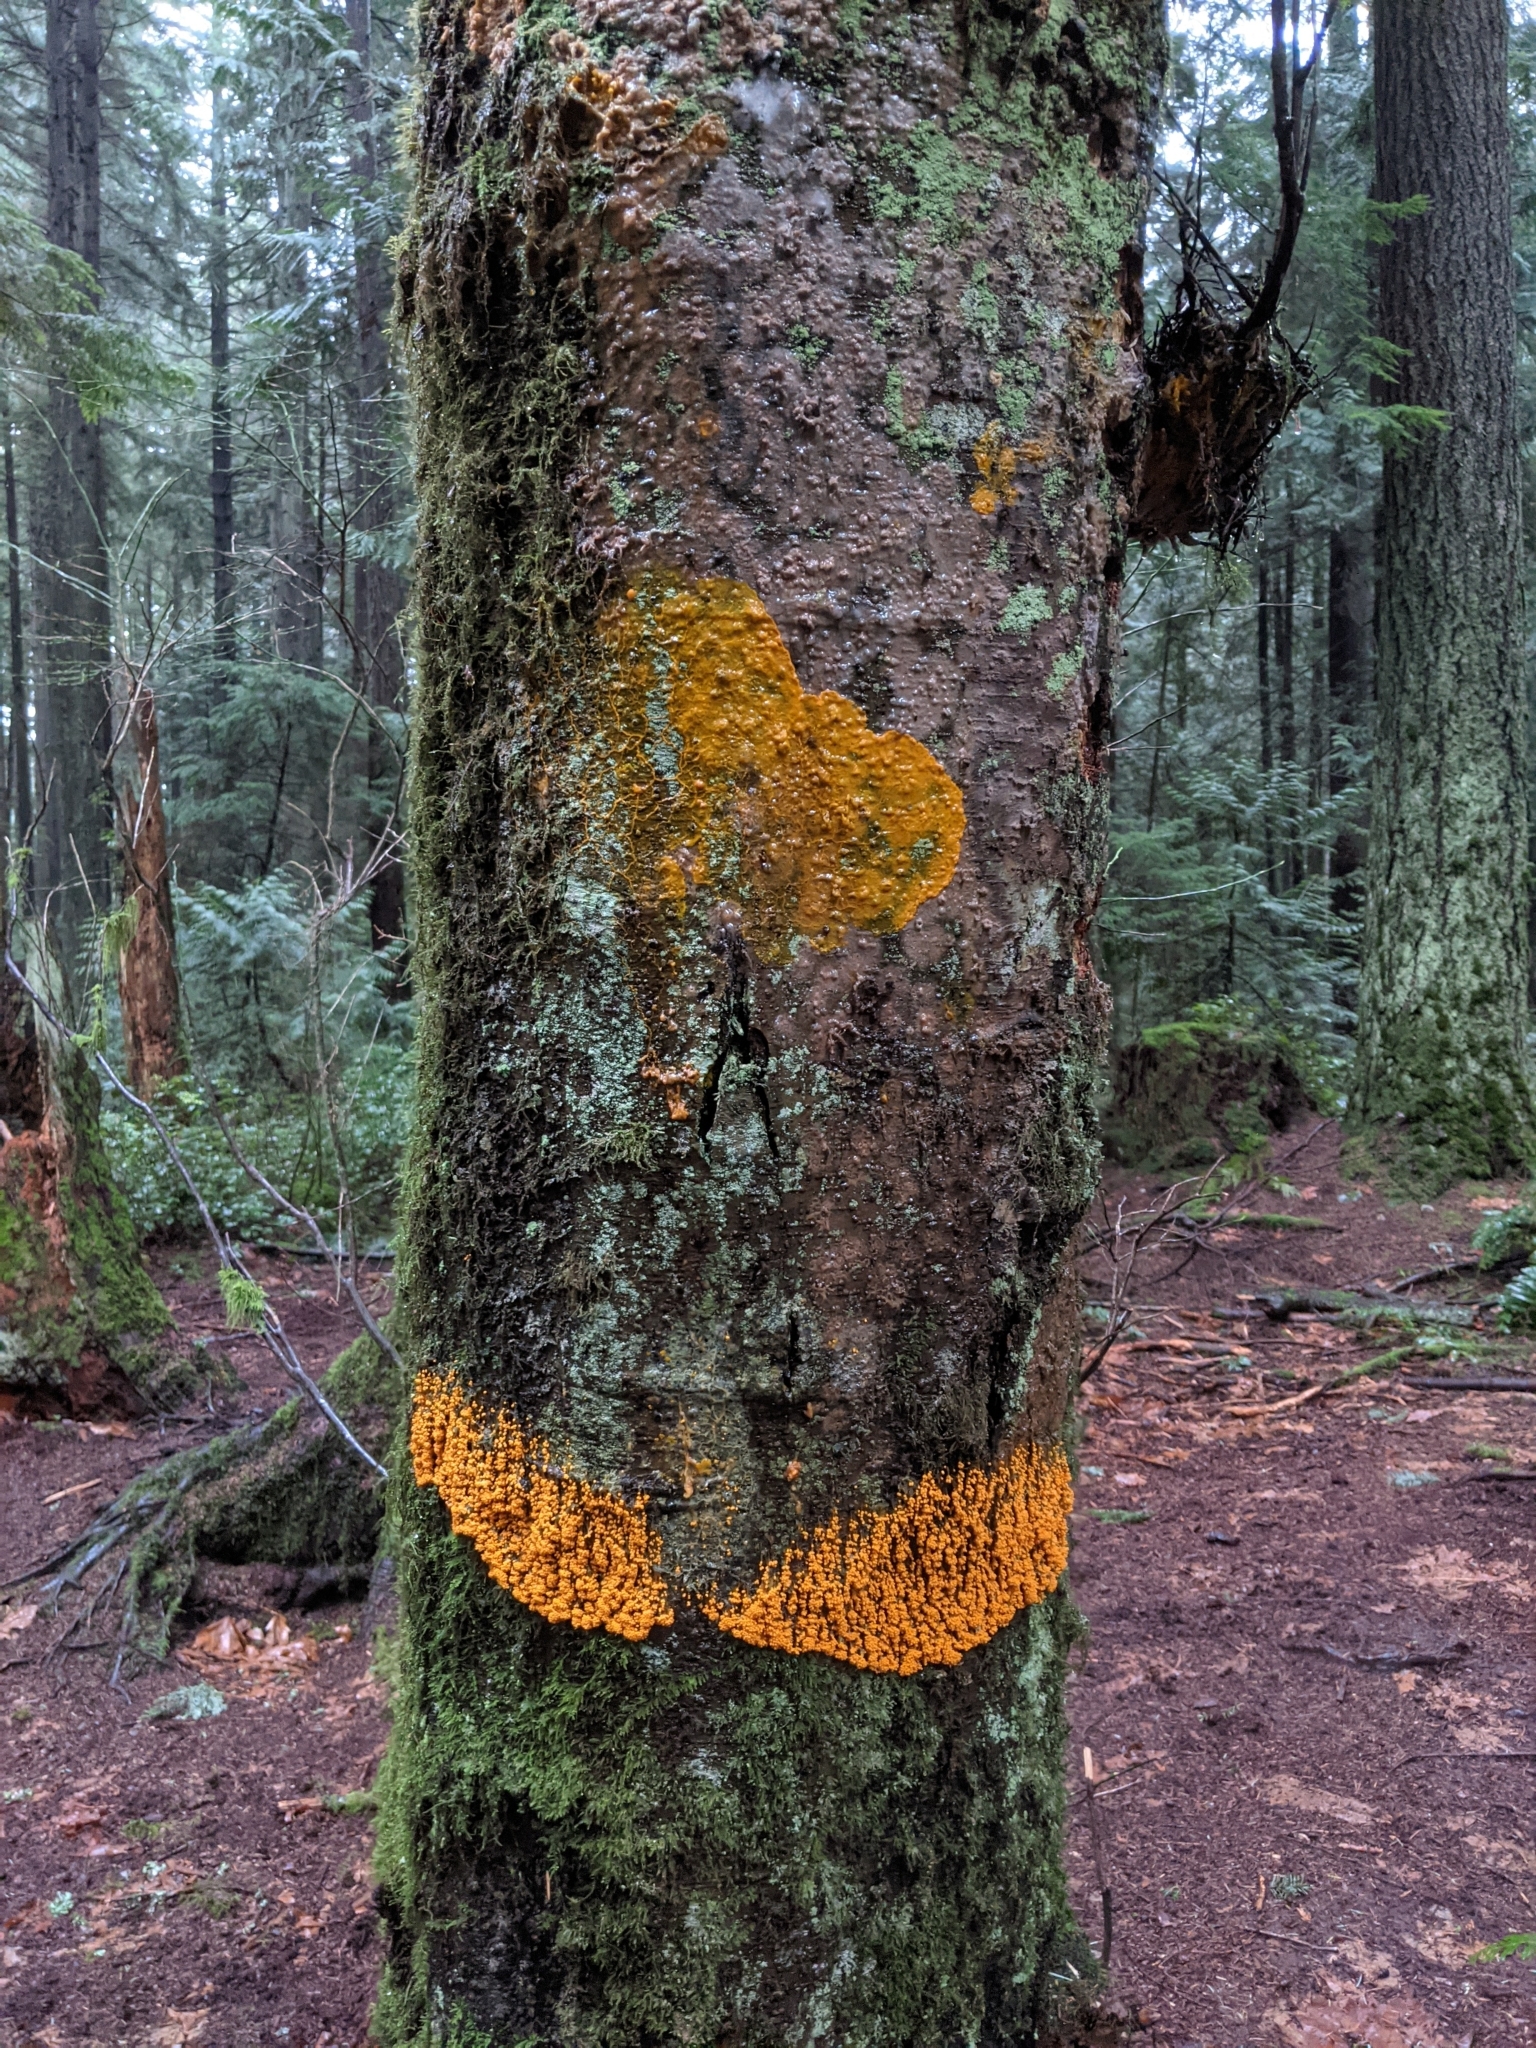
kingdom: Protozoa
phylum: Mycetozoa
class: Myxomycetes
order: Physarales
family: Physaraceae
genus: Badhamia
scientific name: Badhamia utricularis
